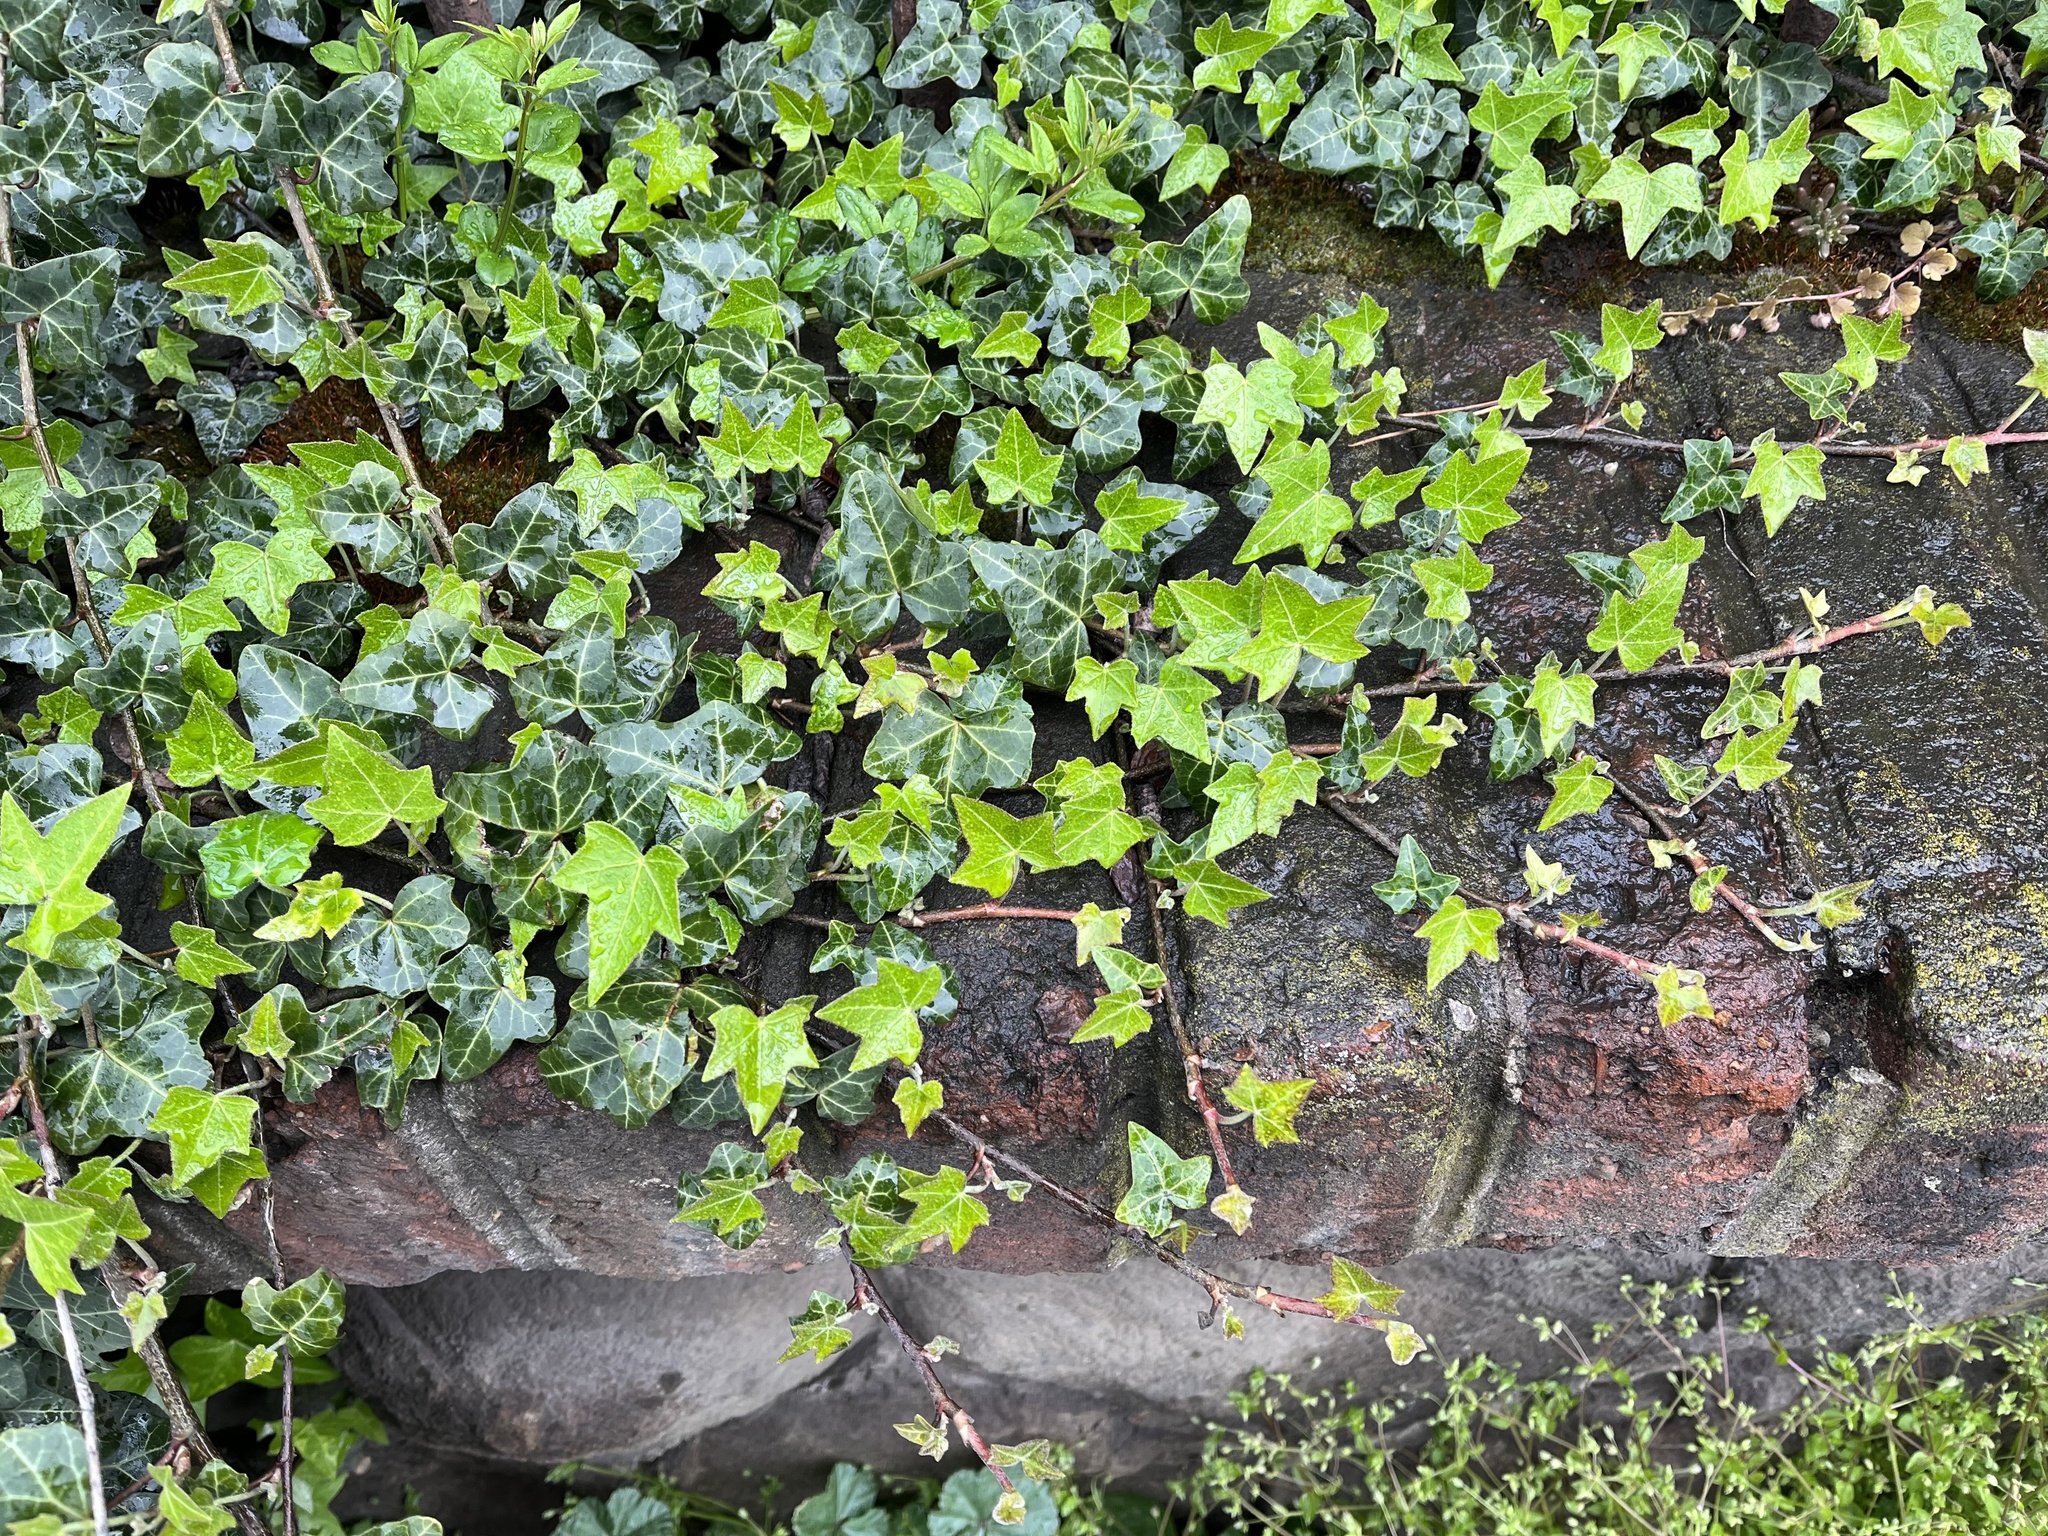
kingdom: Plantae
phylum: Tracheophyta
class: Magnoliopsida
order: Apiales
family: Araliaceae
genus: Hedera
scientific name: Hedera helix
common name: Ivy
